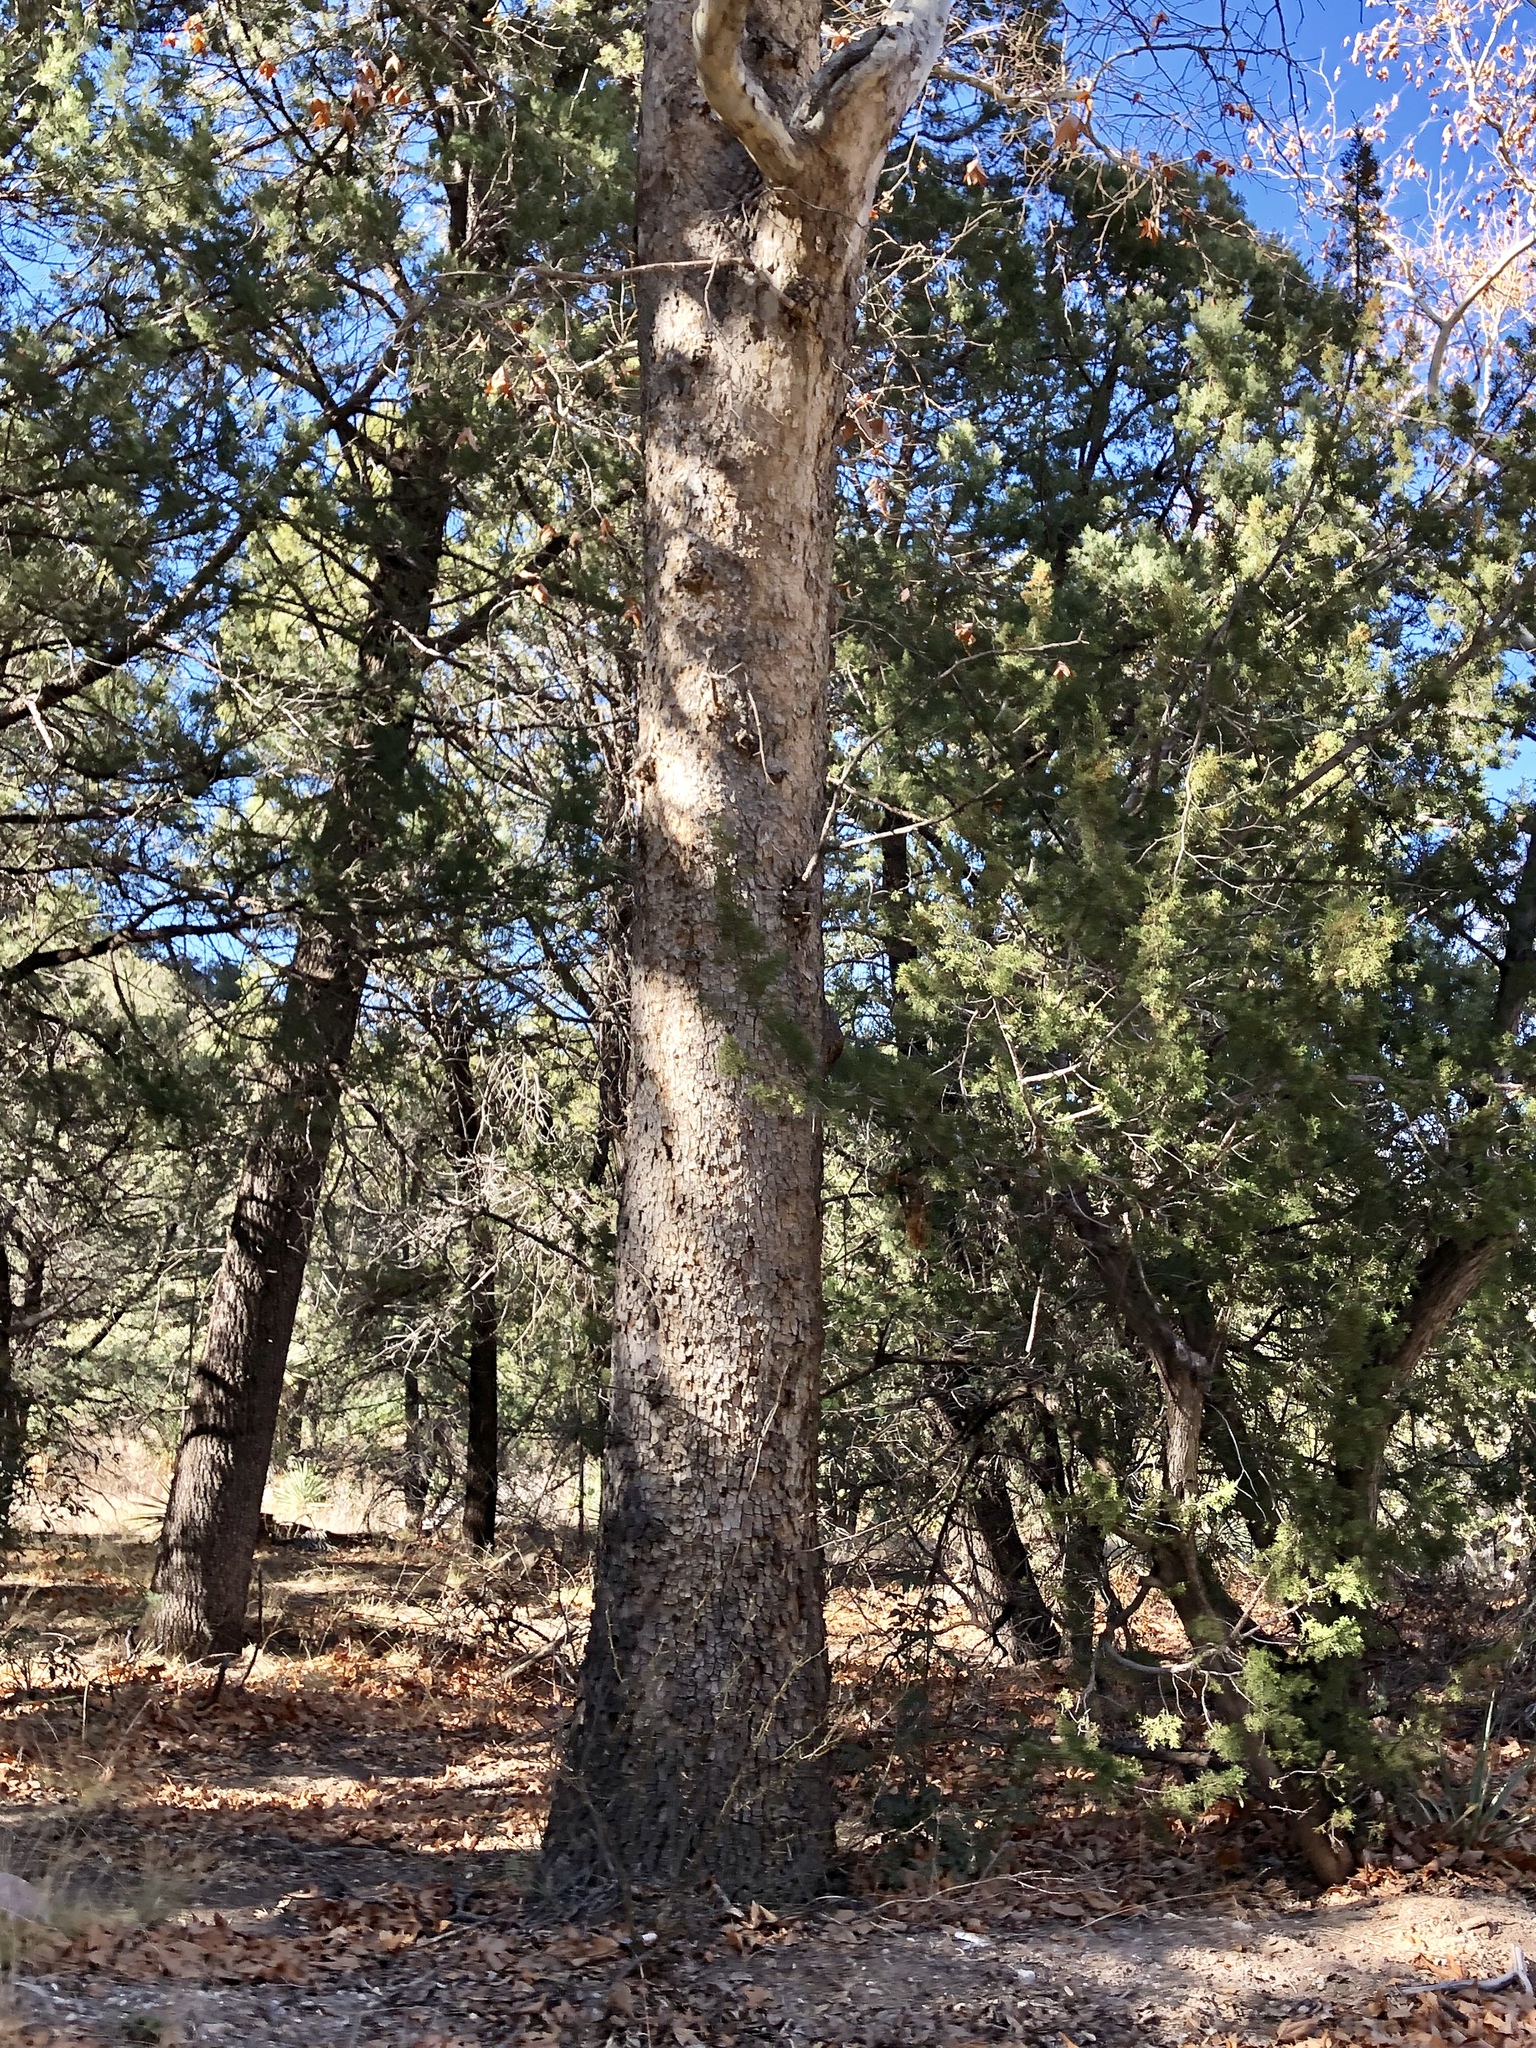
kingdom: Plantae
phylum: Tracheophyta
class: Magnoliopsida
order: Proteales
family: Platanaceae
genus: Platanus
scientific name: Platanus wrightii
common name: Arizona sycamore
